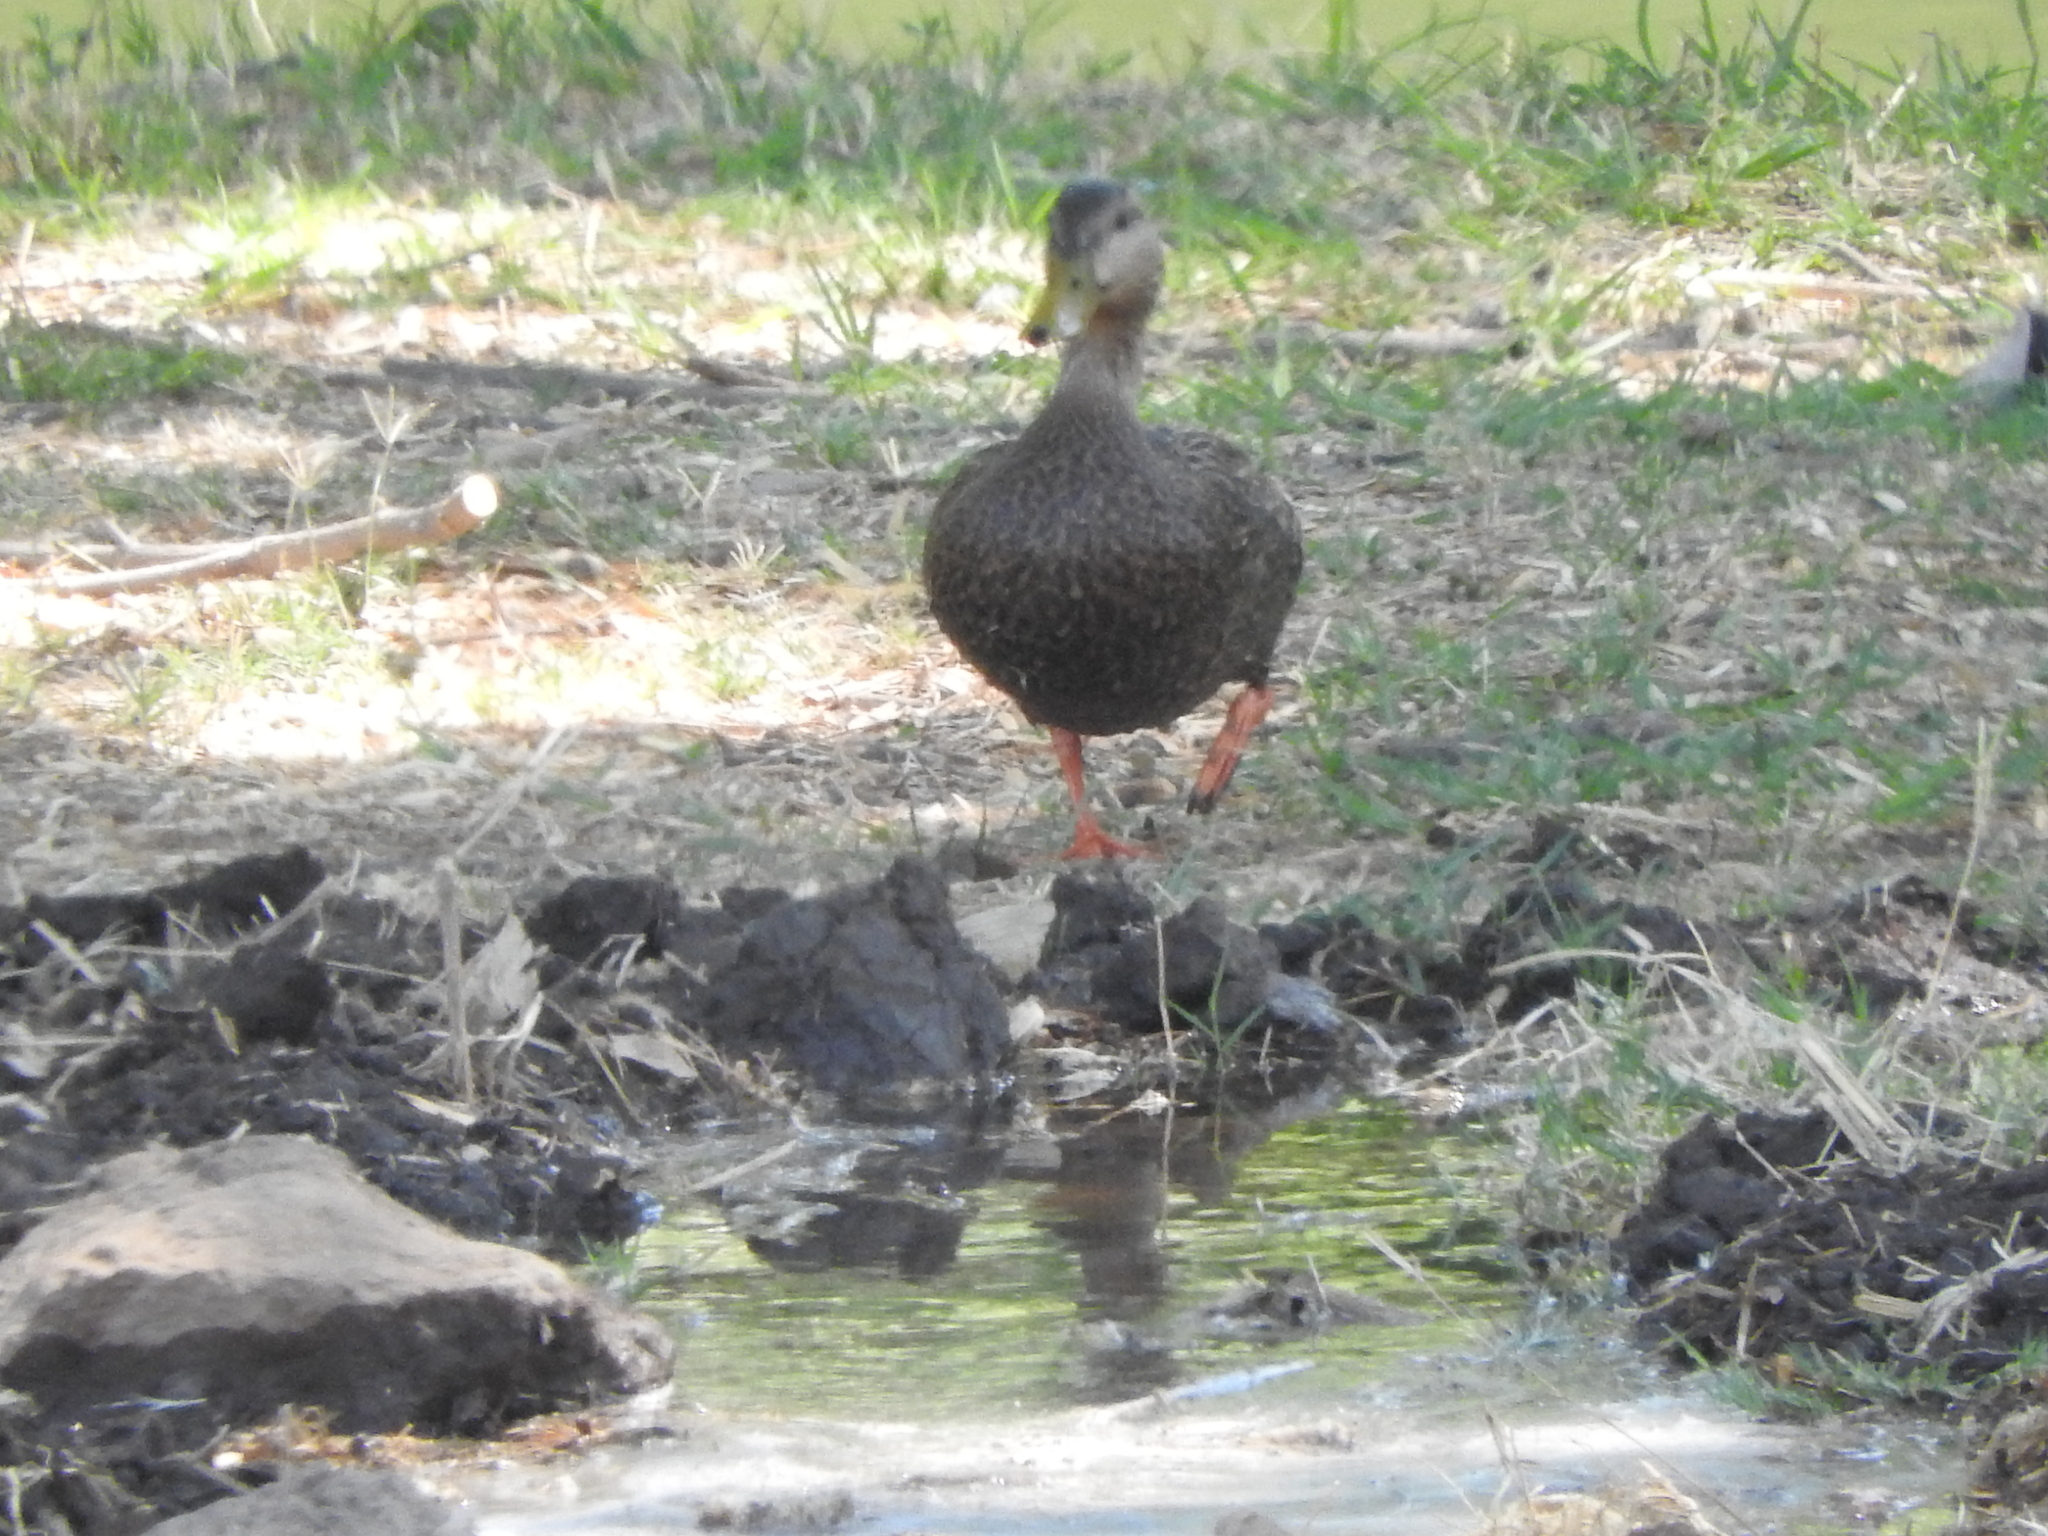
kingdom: Animalia
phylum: Chordata
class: Aves
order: Anseriformes
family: Anatidae
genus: Anas
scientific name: Anas diazi
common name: Mexican duck
